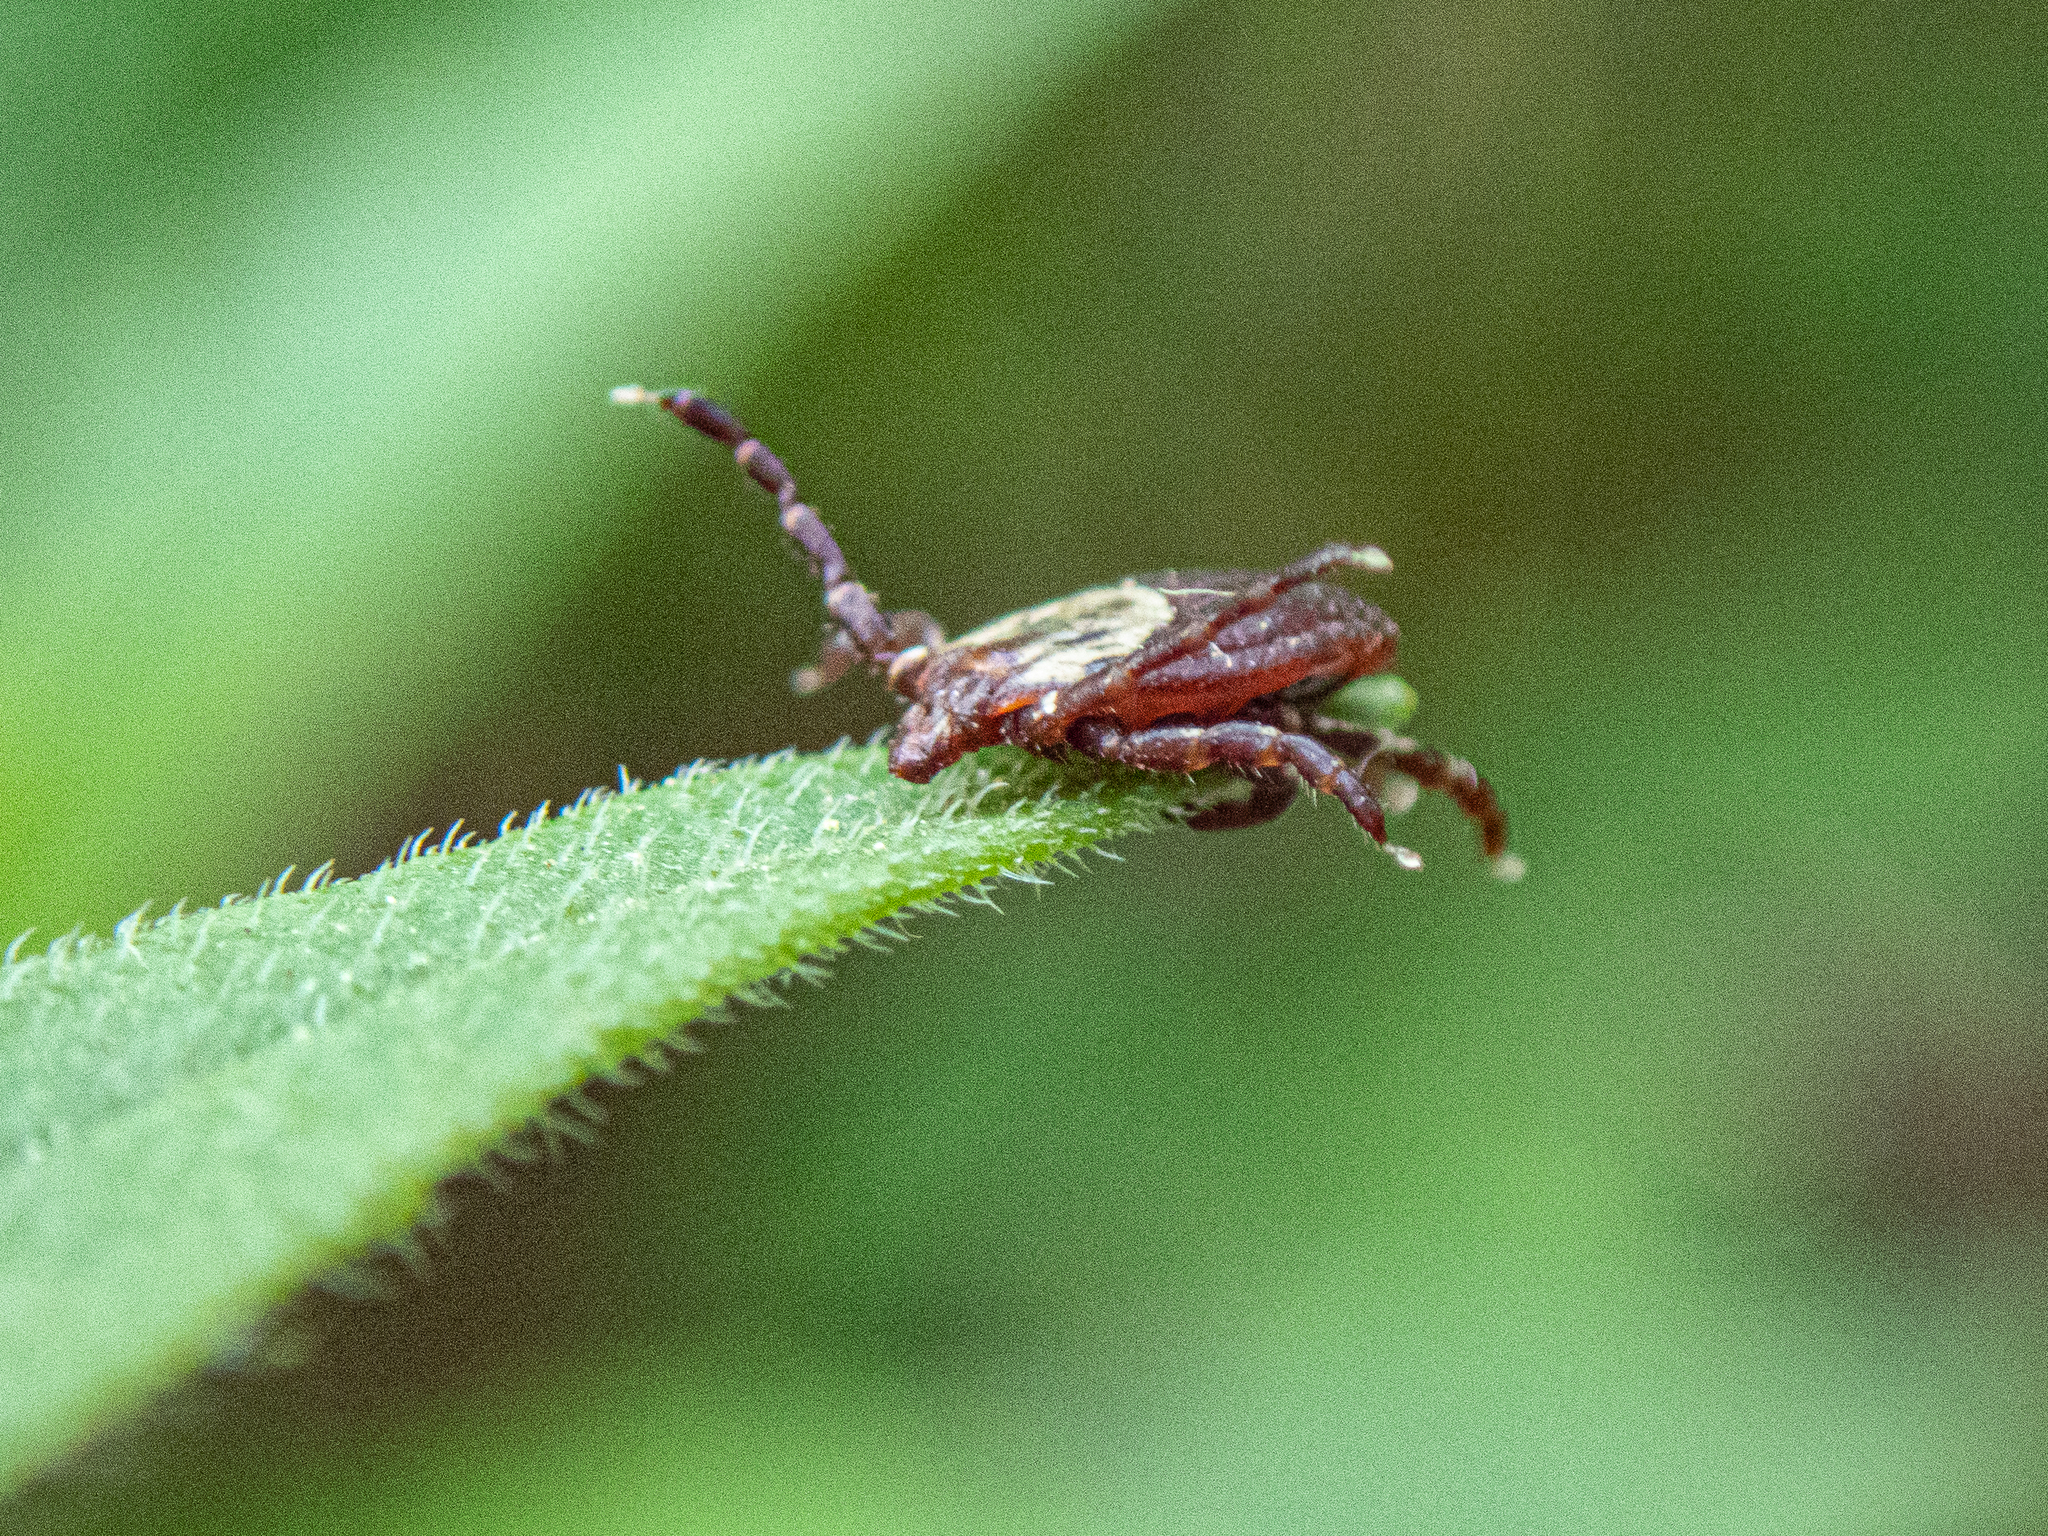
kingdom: Animalia
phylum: Arthropoda
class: Arachnida
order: Ixodida
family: Ixodidae
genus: Dermacentor
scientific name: Dermacentor variabilis
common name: American dog tick
